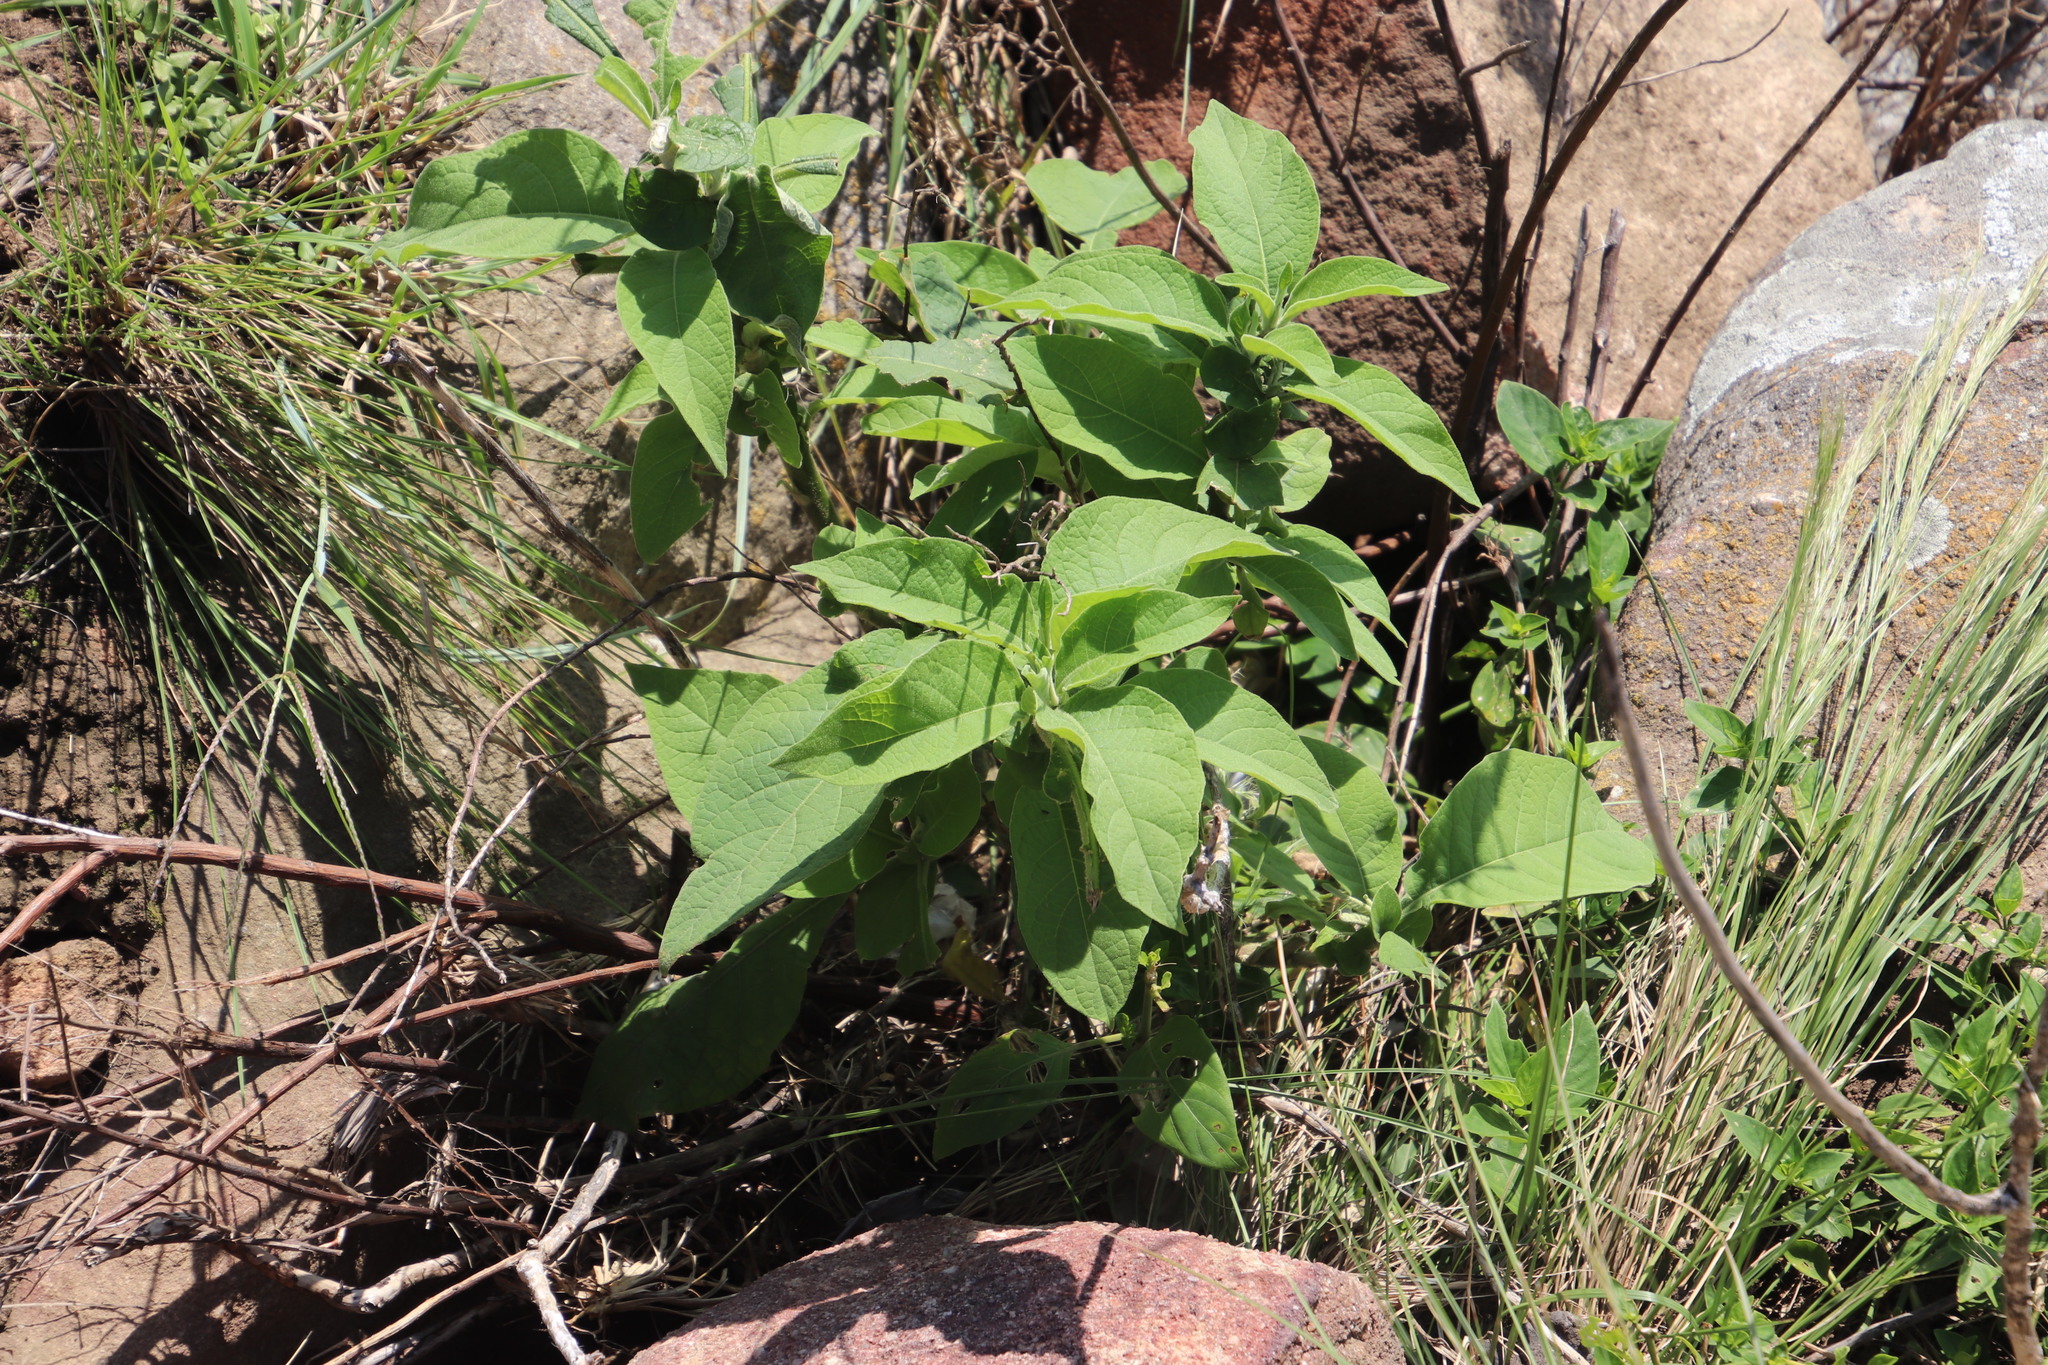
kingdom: Plantae
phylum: Tracheophyta
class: Magnoliopsida
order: Solanales
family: Solanaceae
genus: Solanum
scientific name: Solanum mauritianum
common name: Earleaf nightshade
